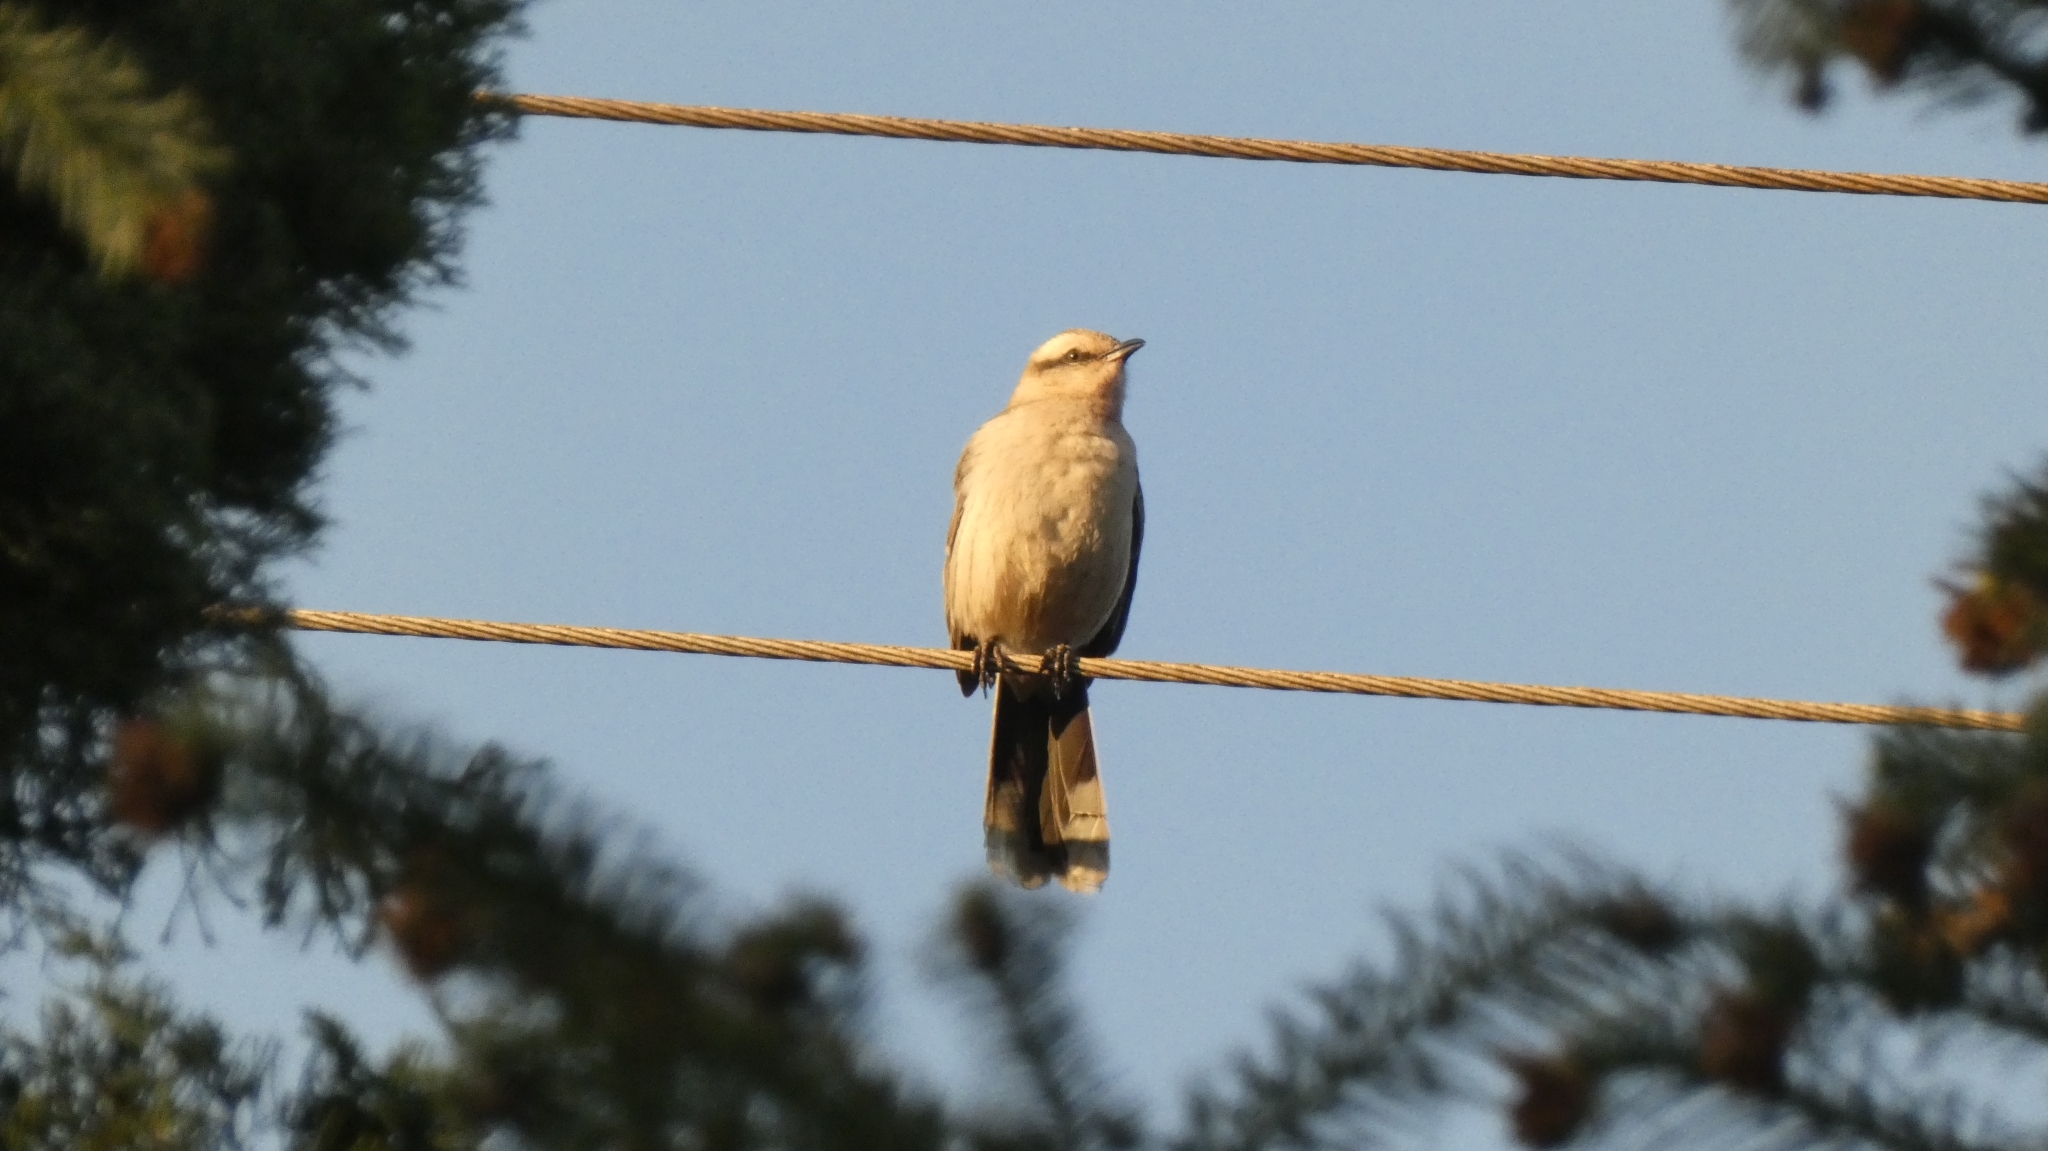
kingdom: Animalia
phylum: Chordata
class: Aves
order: Passeriformes
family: Mimidae
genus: Mimus
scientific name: Mimus saturninus
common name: Chalk-browed mockingbird
